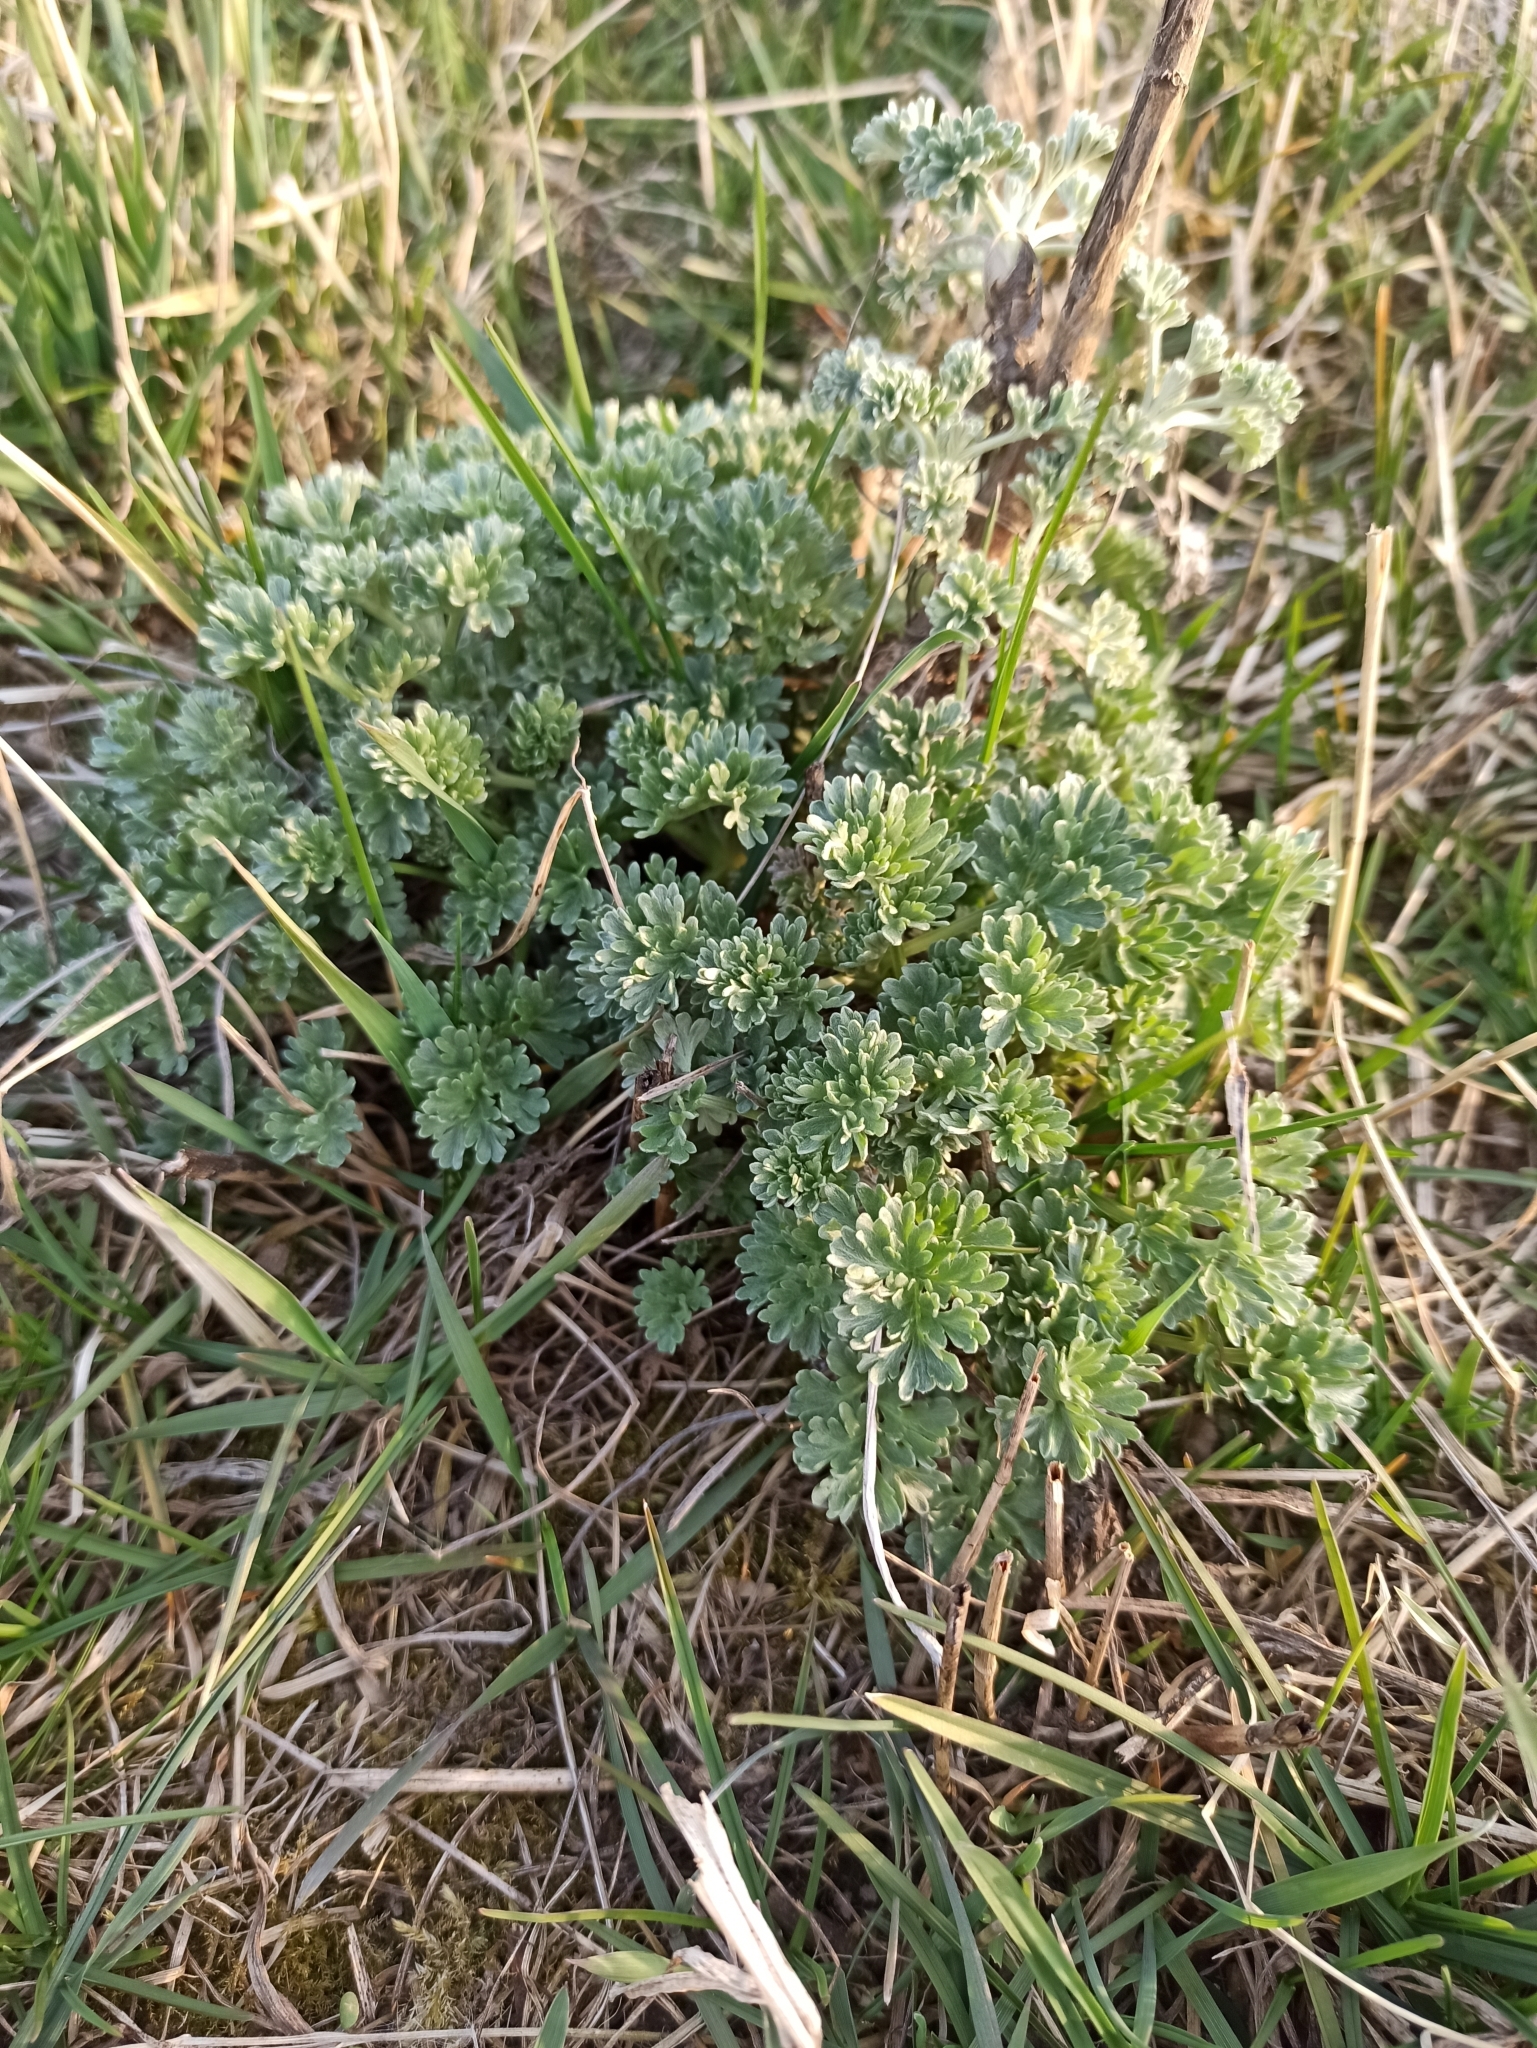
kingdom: Plantae
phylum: Tracheophyta
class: Magnoliopsida
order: Asterales
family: Asteraceae
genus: Artemisia
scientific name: Artemisia absinthium
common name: Wormwood
